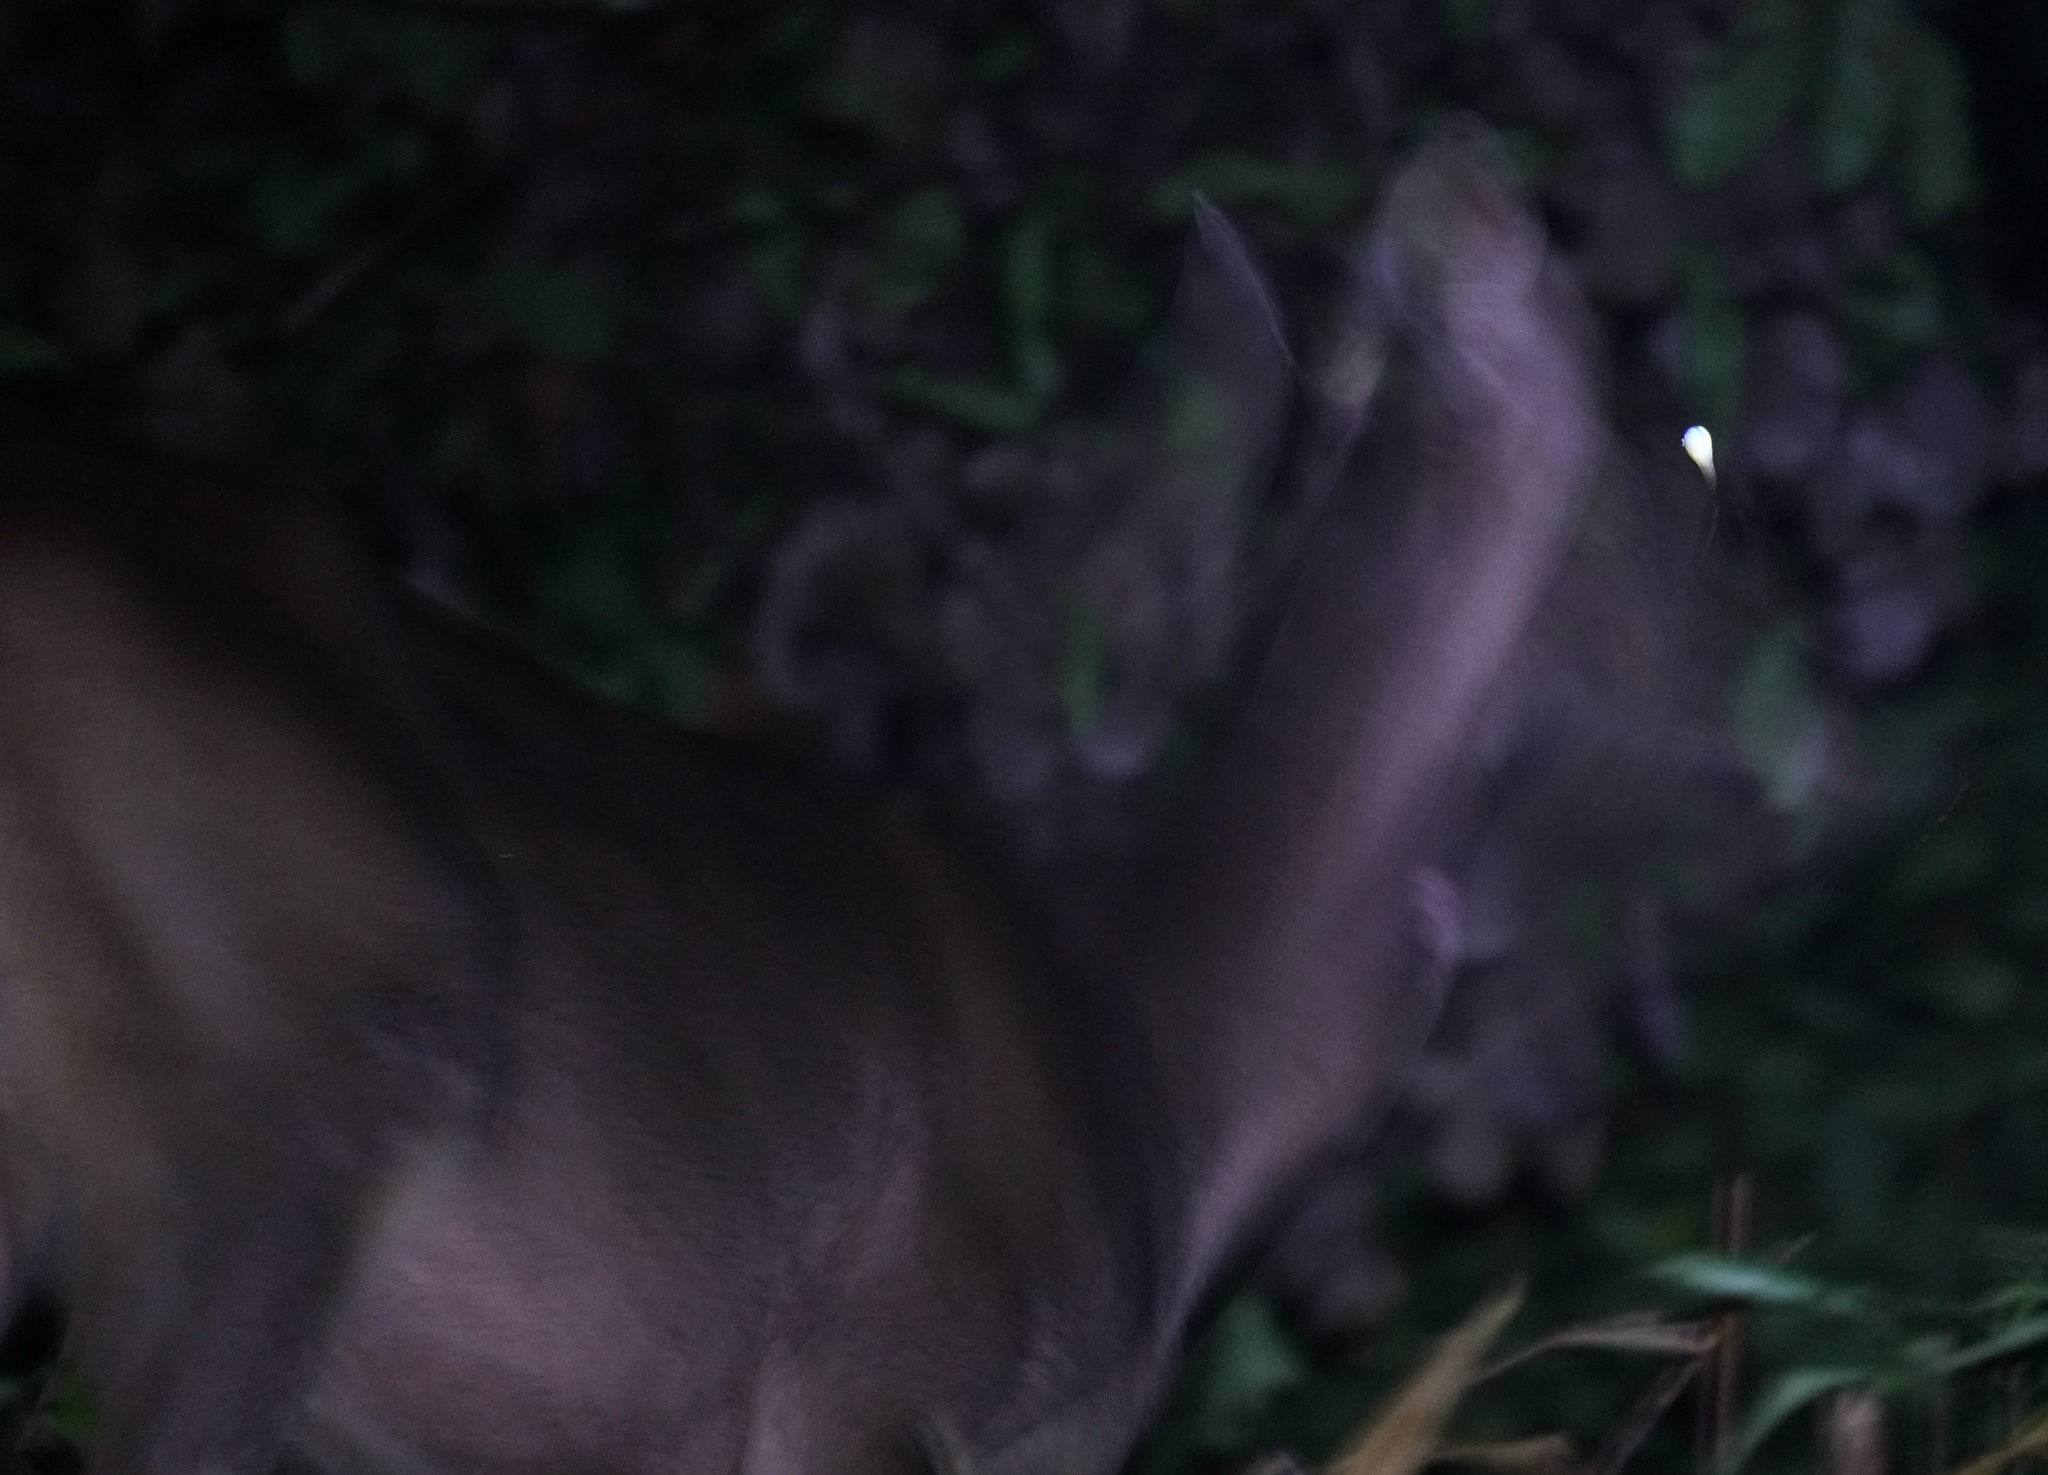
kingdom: Animalia
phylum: Chordata
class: Mammalia
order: Artiodactyla
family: Cervidae
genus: Rusa
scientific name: Rusa unicolor
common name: Sambar
